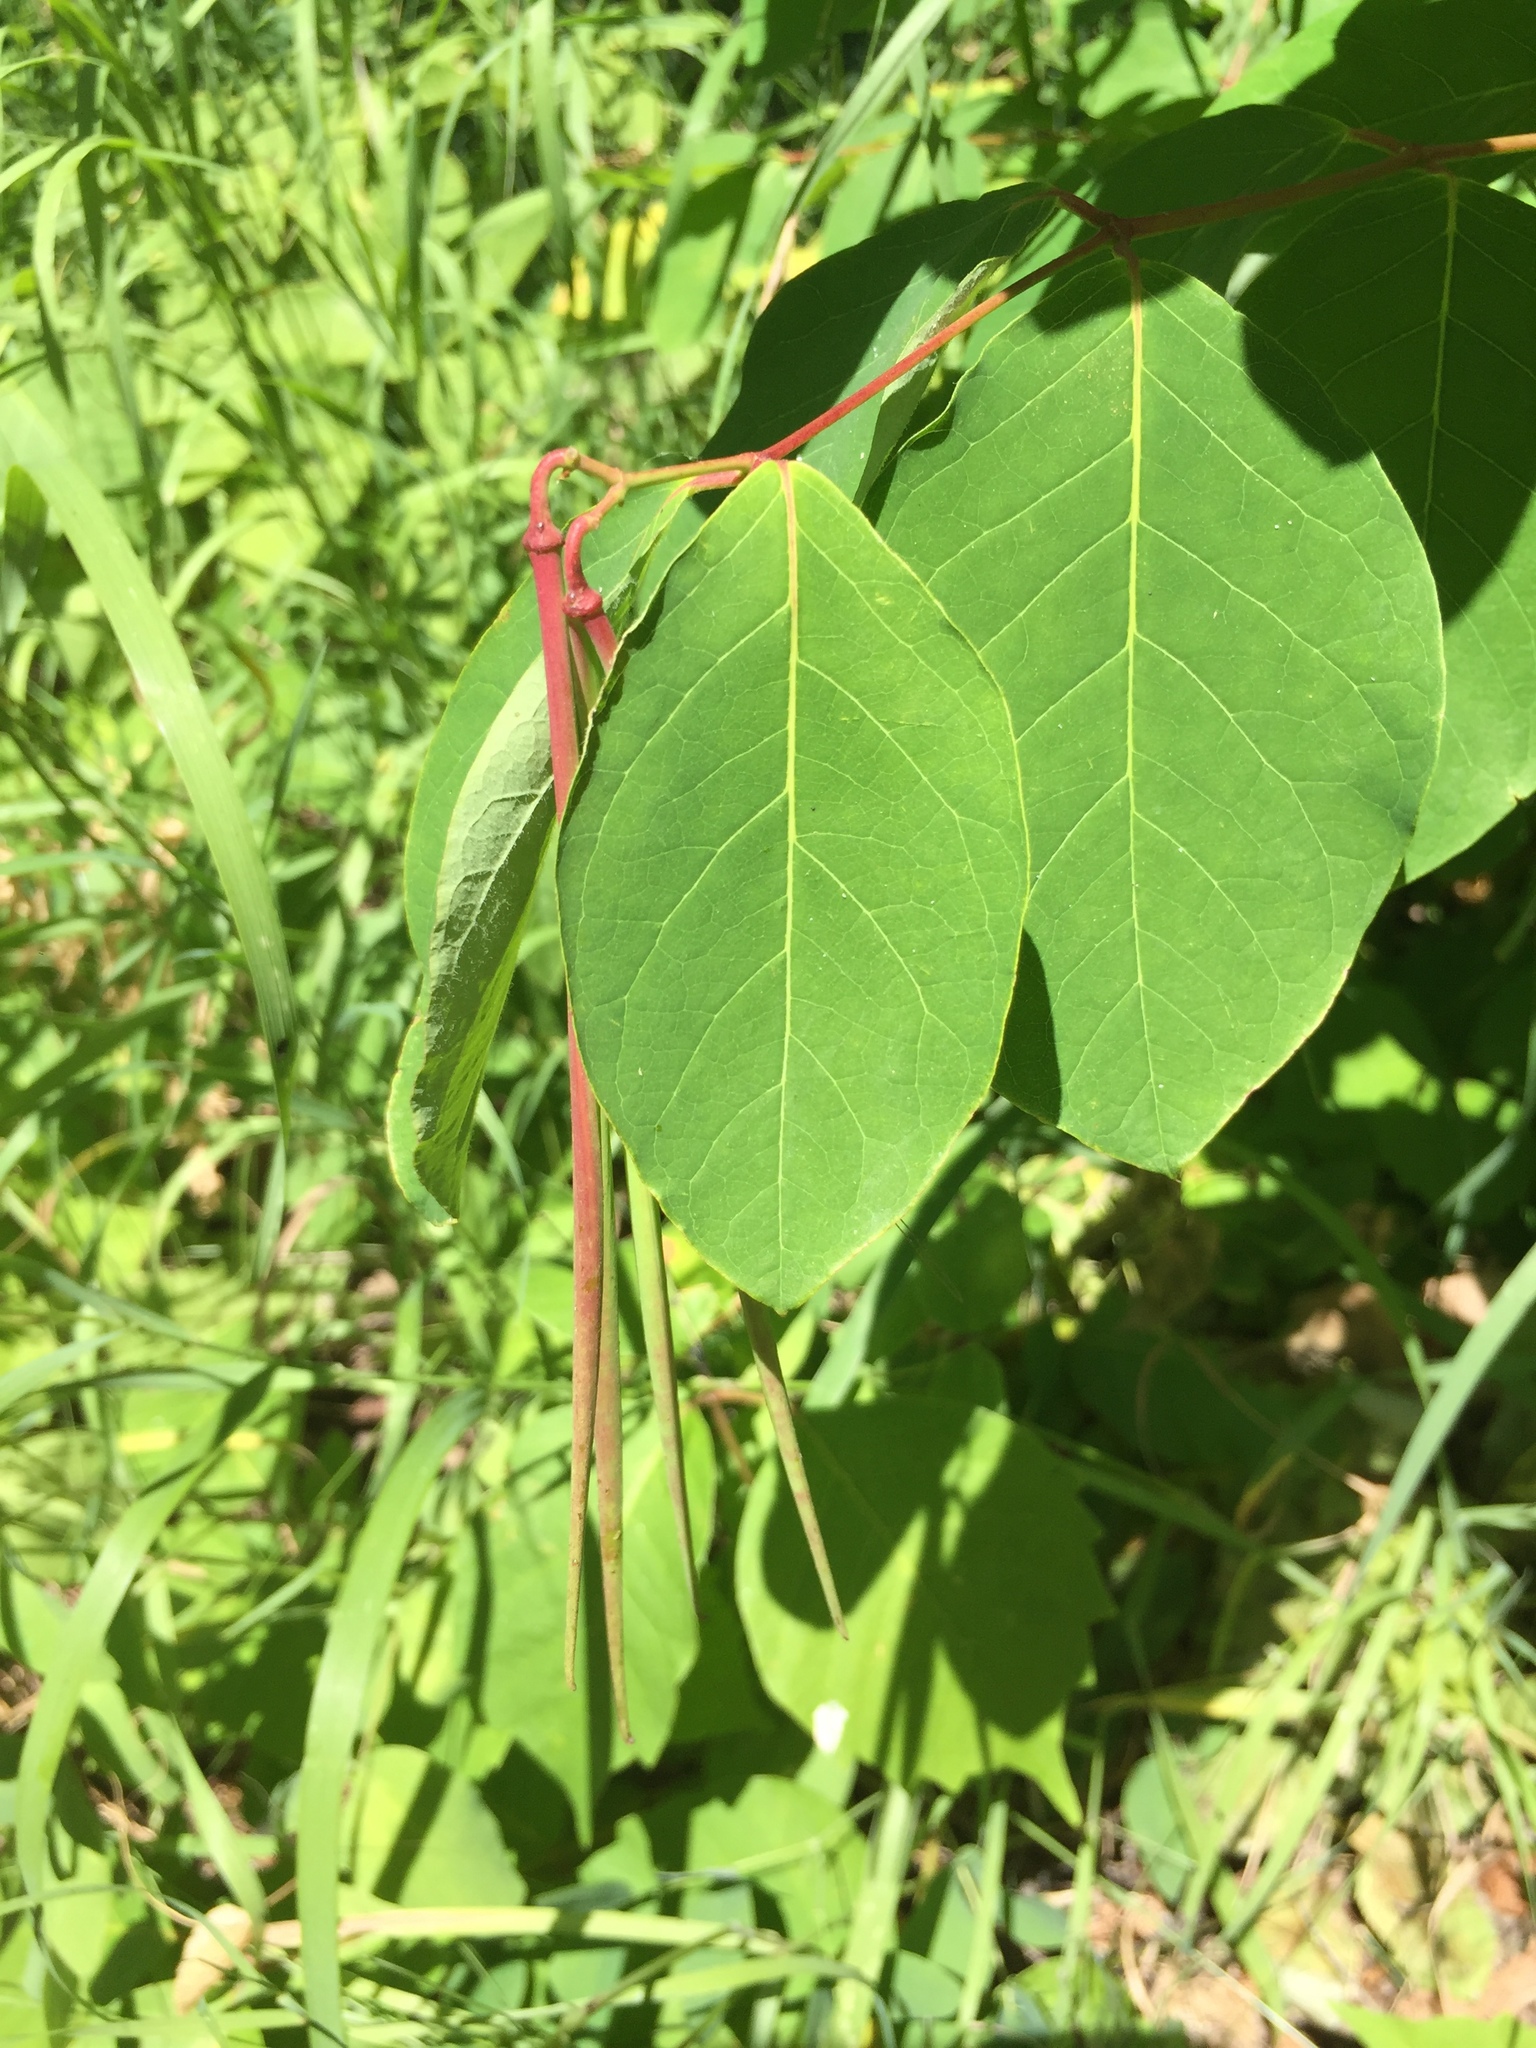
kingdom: Plantae
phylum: Tracheophyta
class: Magnoliopsida
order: Gentianales
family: Apocynaceae
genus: Apocynum
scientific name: Apocynum androsaemifolium
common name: Spreading dogbane
